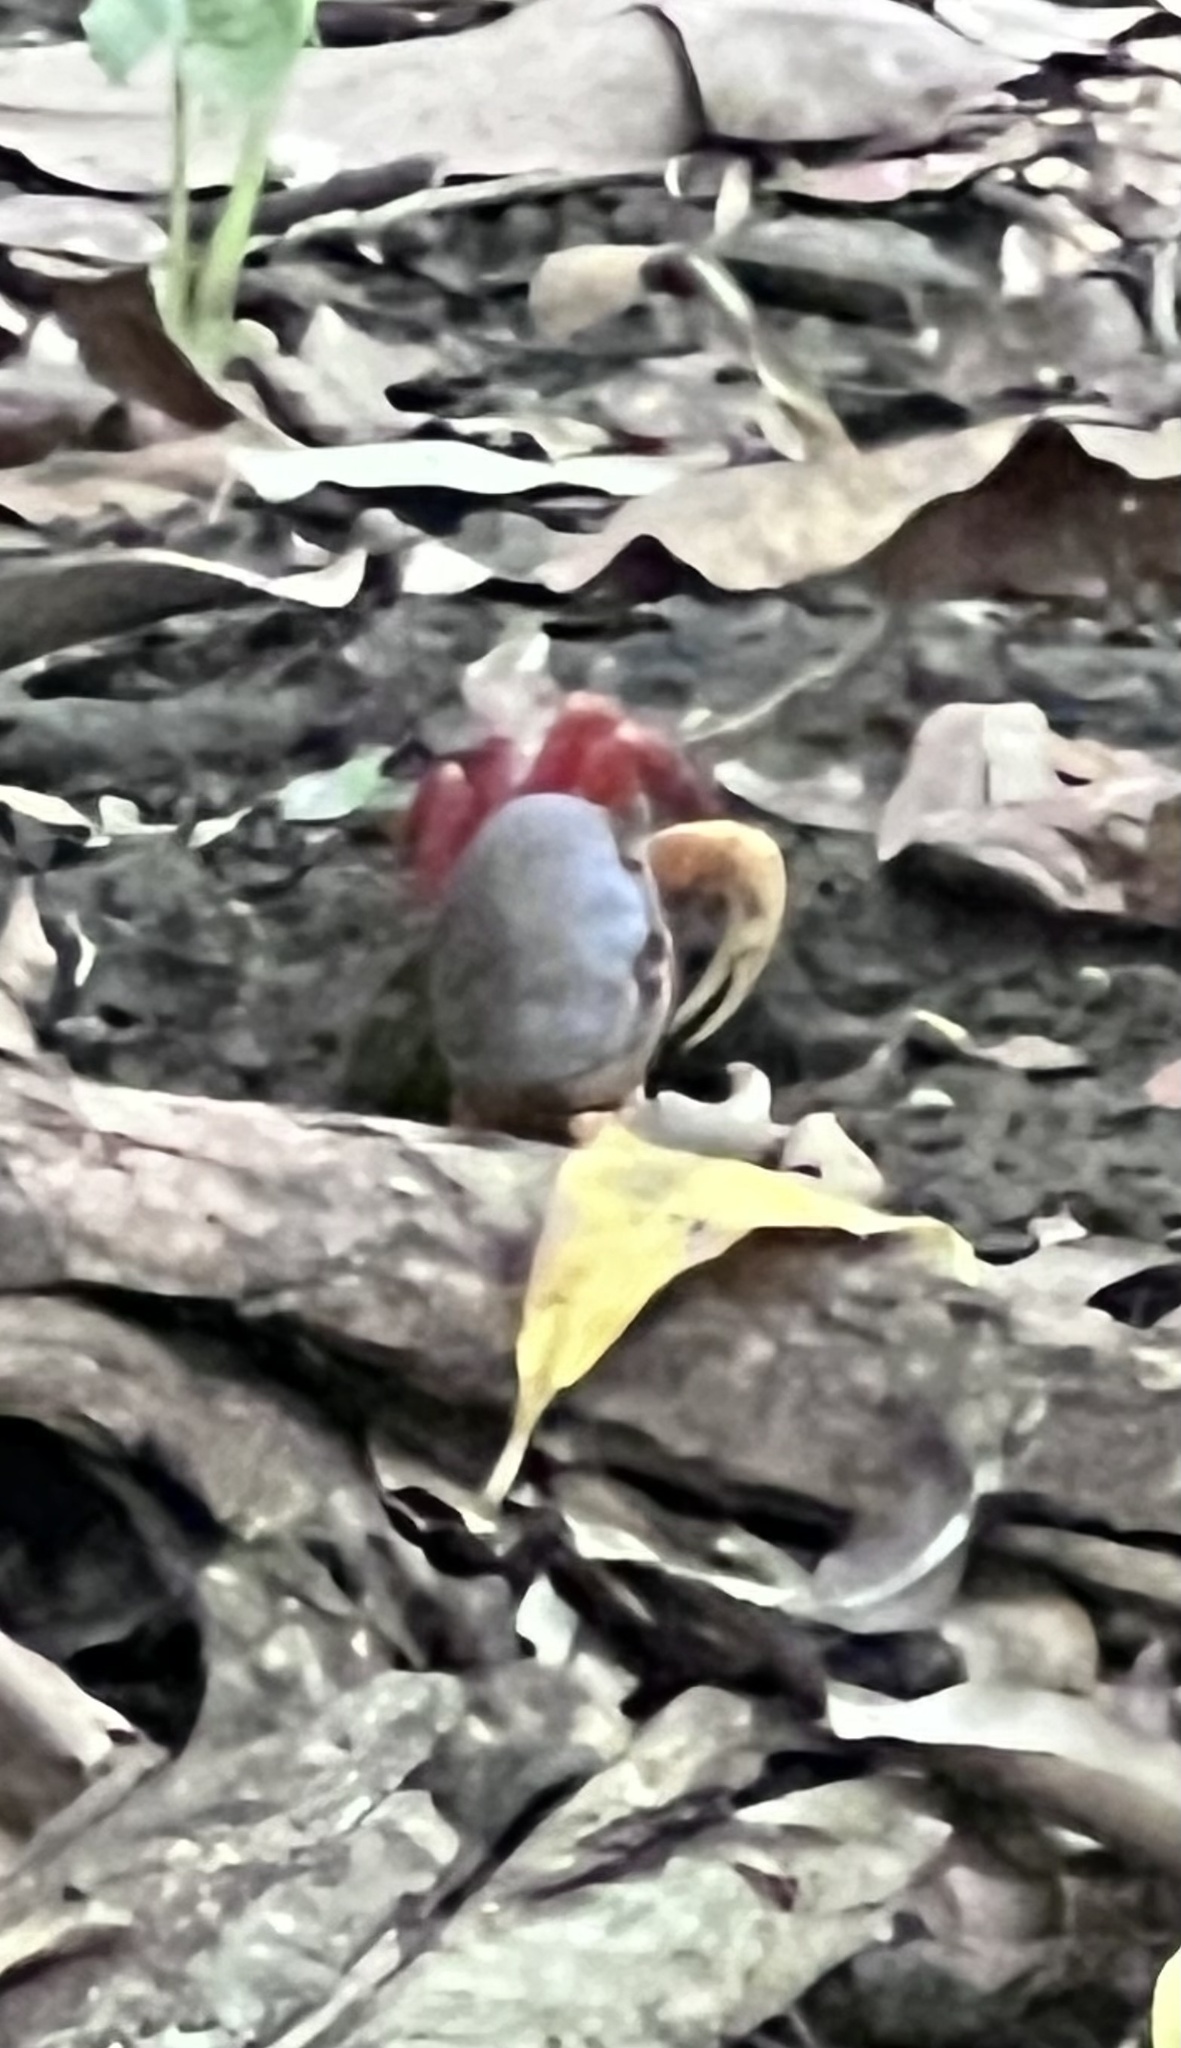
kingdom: Animalia
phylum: Arthropoda
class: Malacostraca
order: Decapoda
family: Gecarcinidae
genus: Cardisoma
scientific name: Cardisoma crassum
